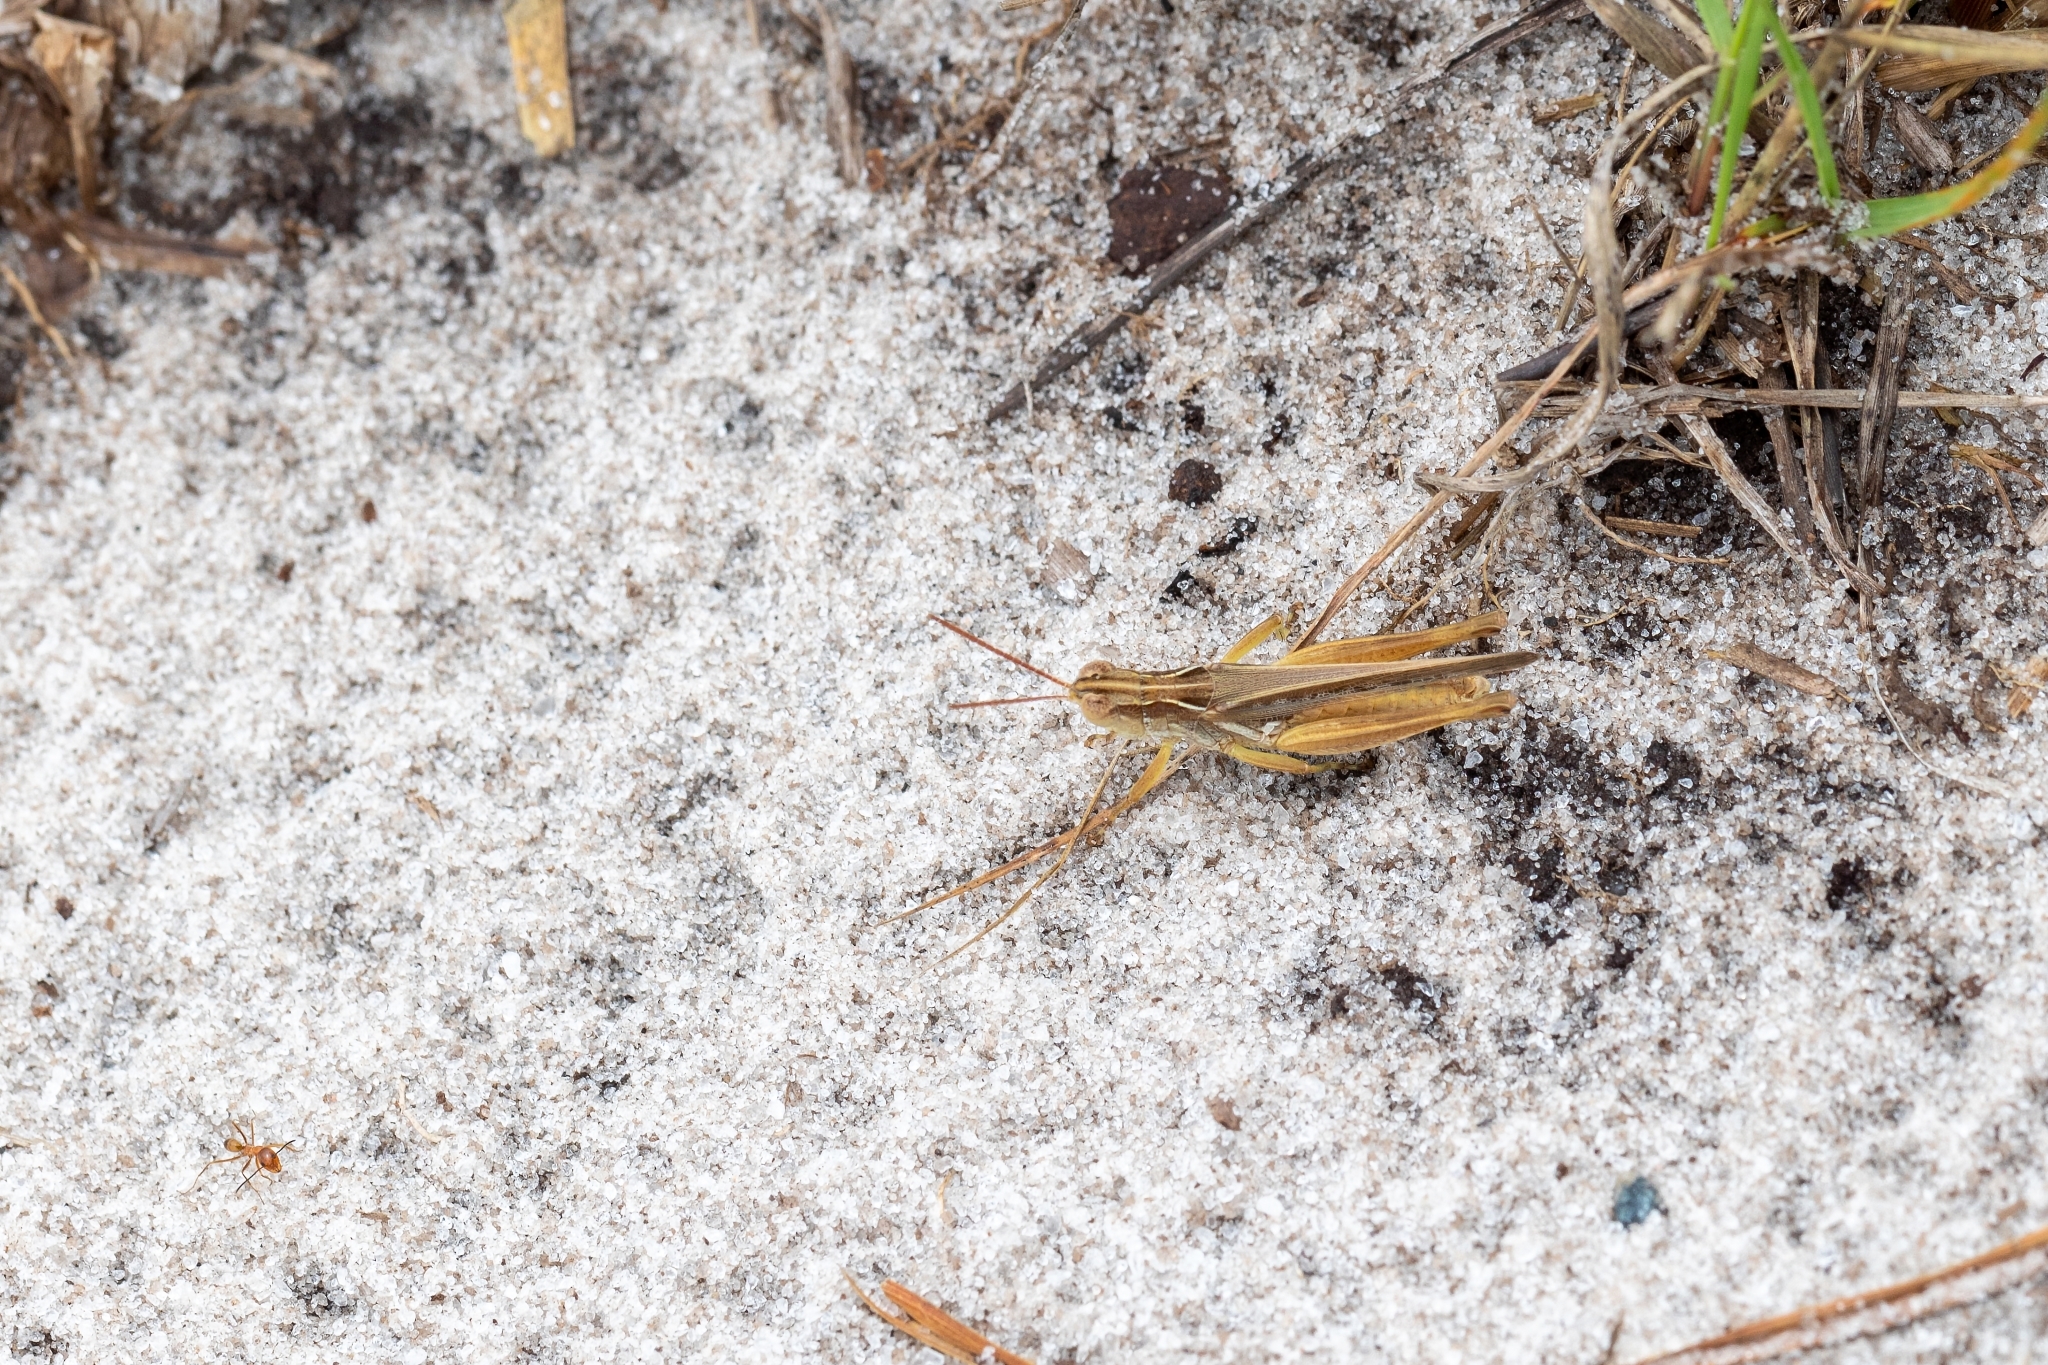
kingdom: Animalia
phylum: Arthropoda
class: Insecta
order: Orthoptera
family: Acrididae
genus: Orphulella
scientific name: Orphulella pelidna
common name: Spotted-wing grasshopper
